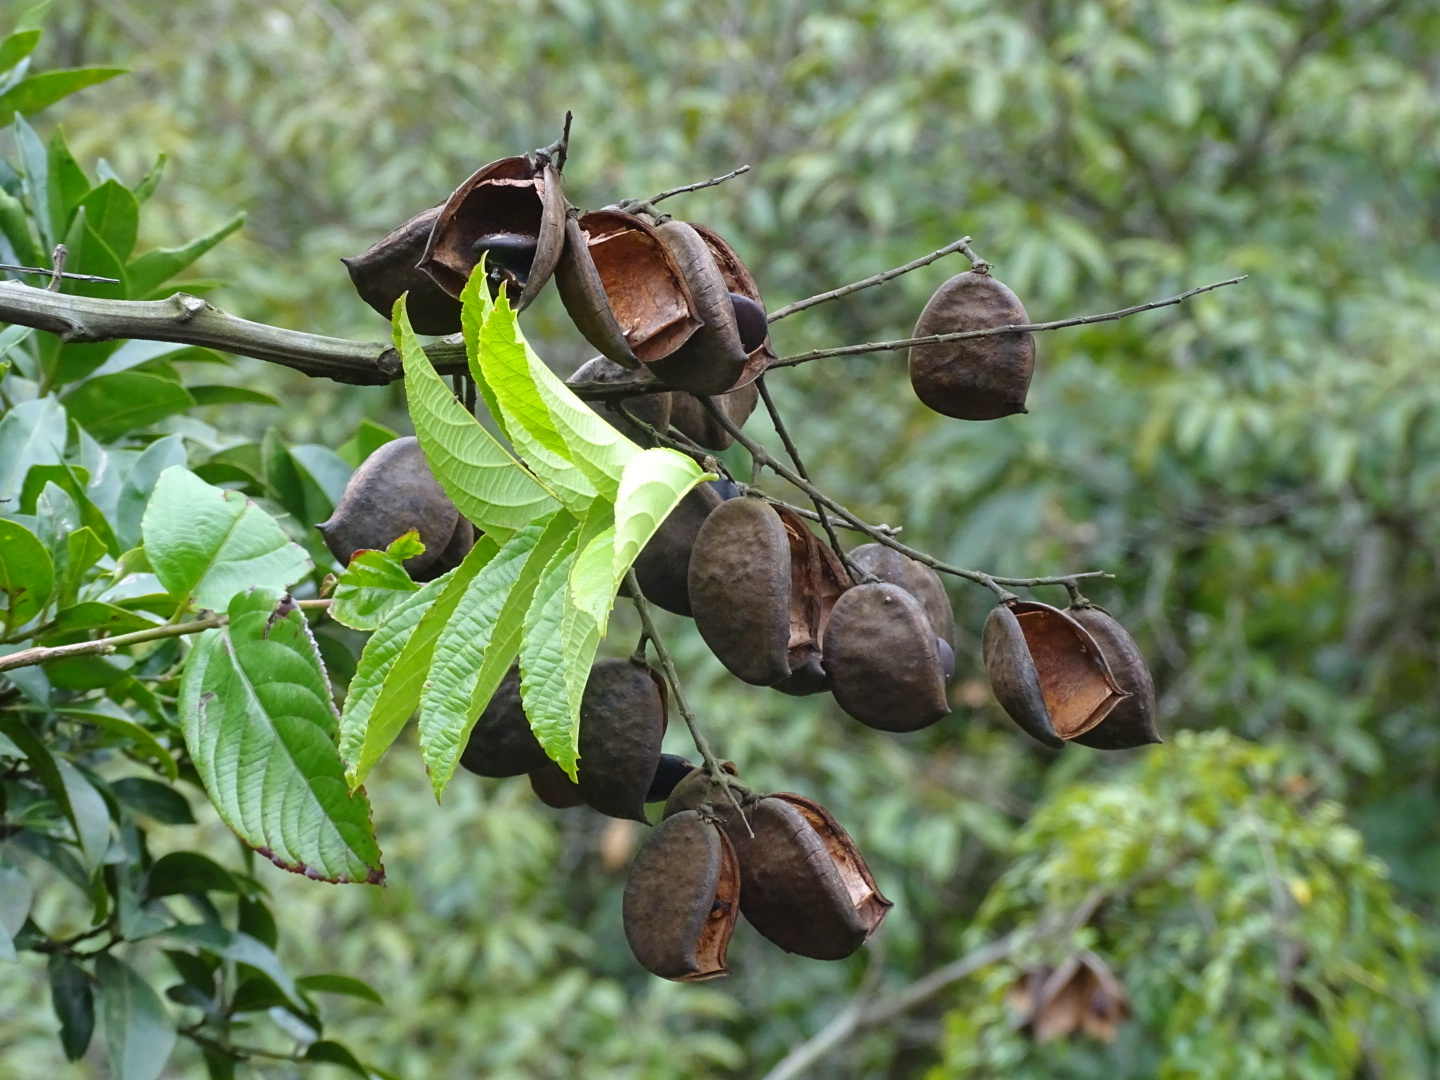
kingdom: Plantae
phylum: Tracheophyta
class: Magnoliopsida
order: Fabales
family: Fabaceae
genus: Caesalpinia
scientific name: Caesalpinia Ticanto vernalis
